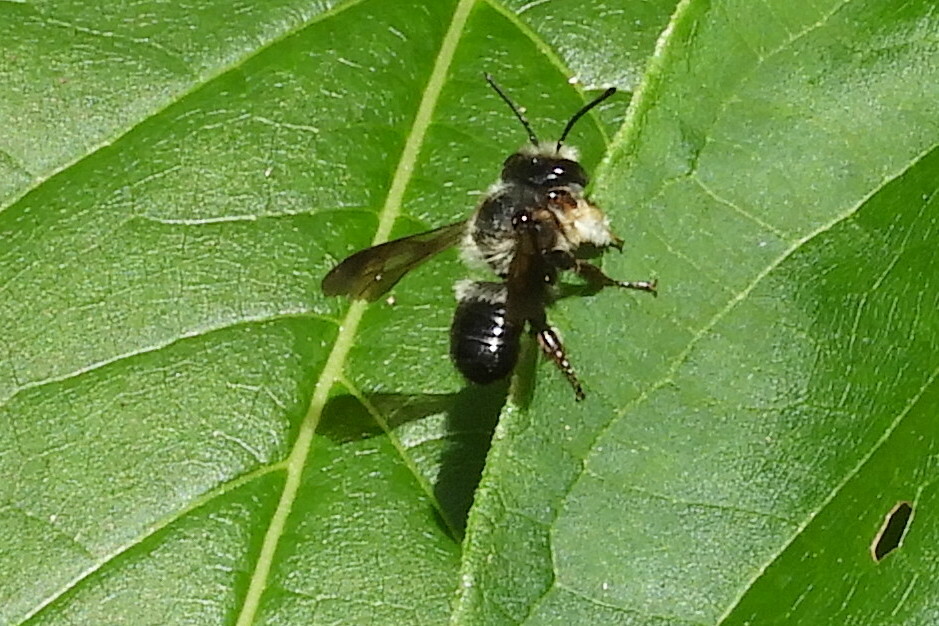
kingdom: Animalia
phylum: Arthropoda
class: Insecta
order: Hymenoptera
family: Megachilidae
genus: Megachile
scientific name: Megachile xylocopoides
